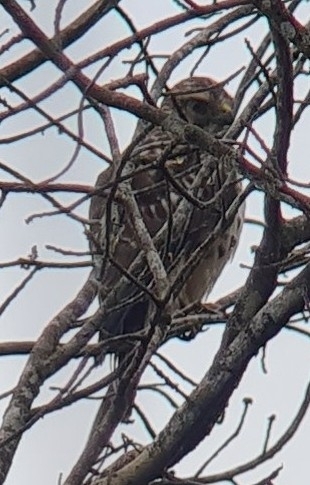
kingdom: Animalia
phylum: Chordata
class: Aves
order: Accipitriformes
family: Accipitridae
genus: Buteo
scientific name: Buteo platypterus
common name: Broad-winged hawk
